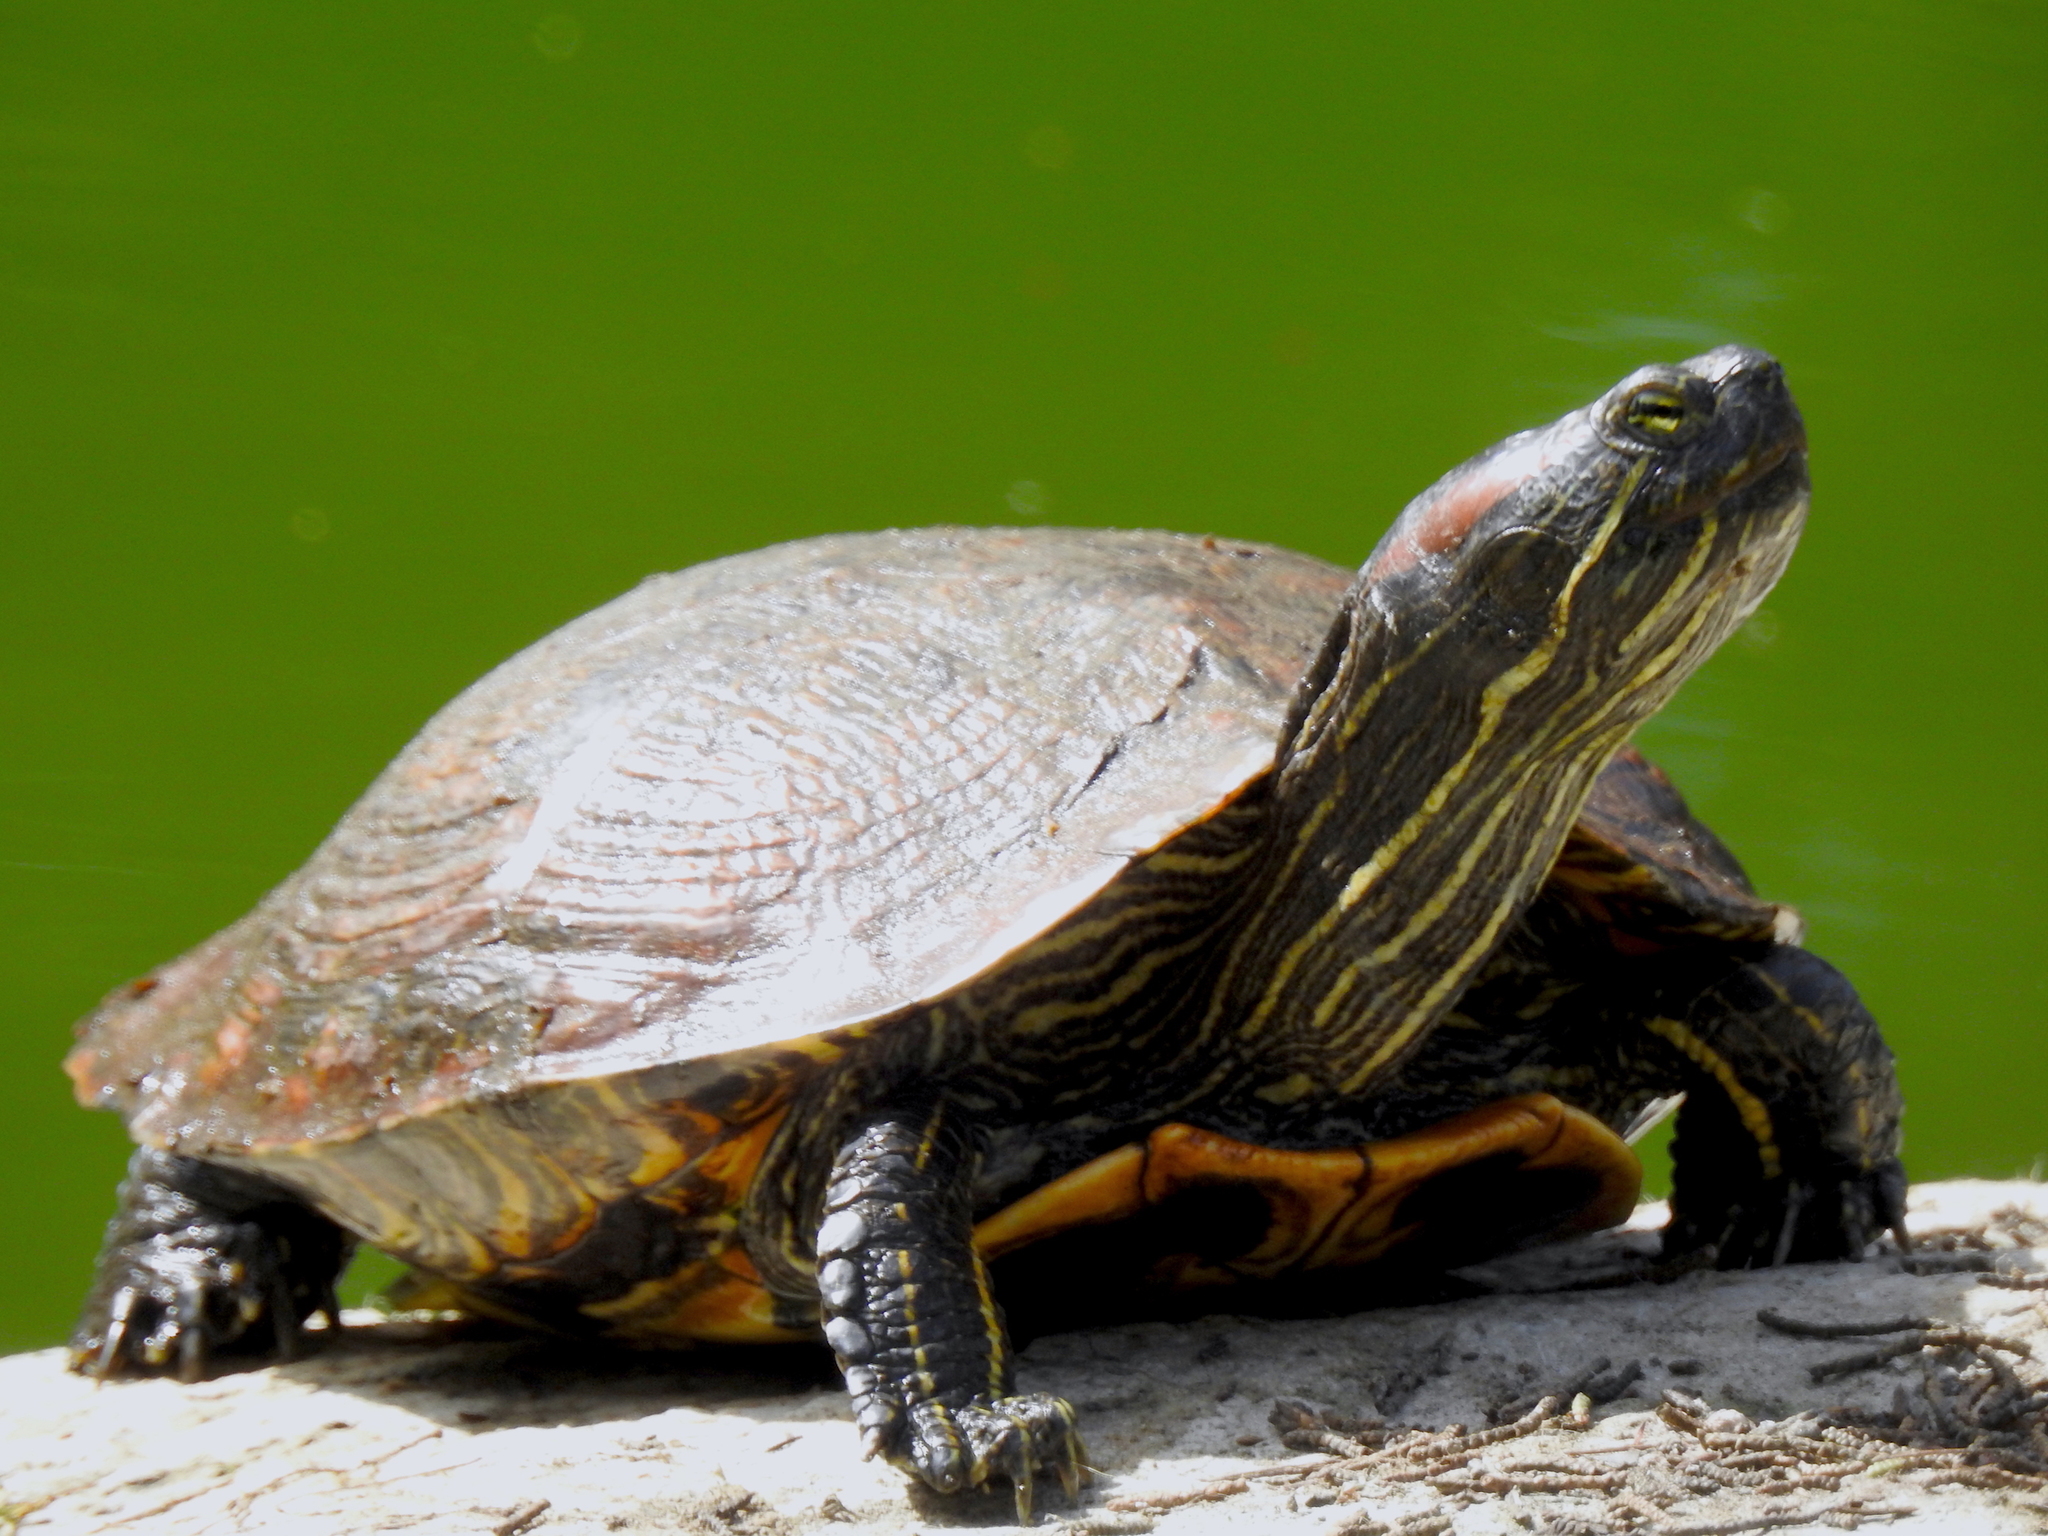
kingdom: Animalia
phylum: Chordata
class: Testudines
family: Emydidae
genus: Trachemys
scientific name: Trachemys scripta
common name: Slider
